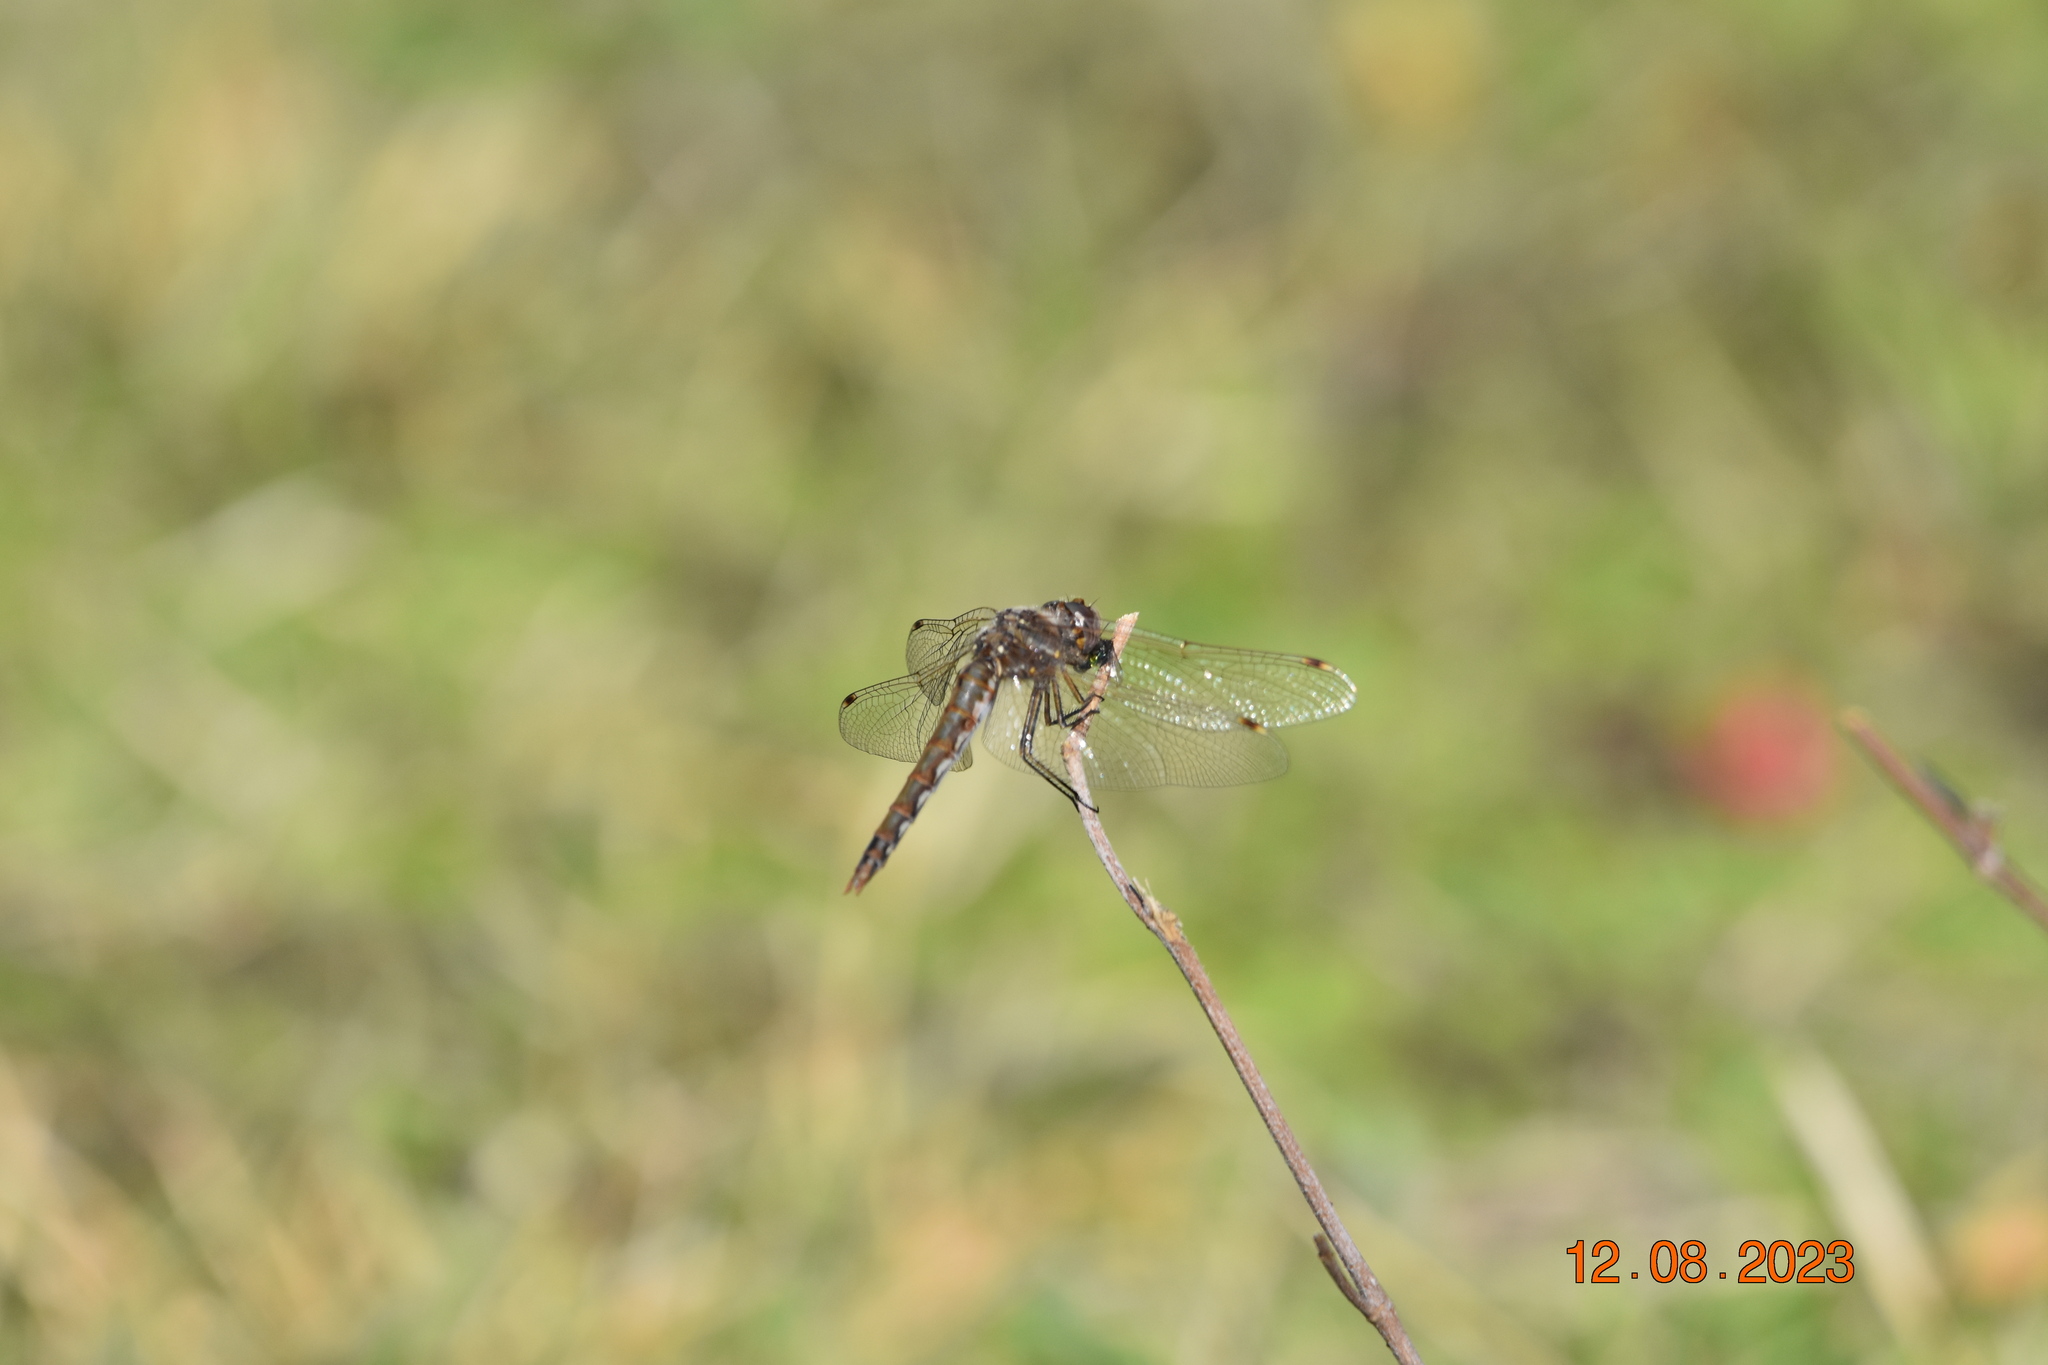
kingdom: Animalia
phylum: Arthropoda
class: Insecta
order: Odonata
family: Libellulidae
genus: Sympetrum
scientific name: Sympetrum corruptum
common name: Variegated meadowhawk
